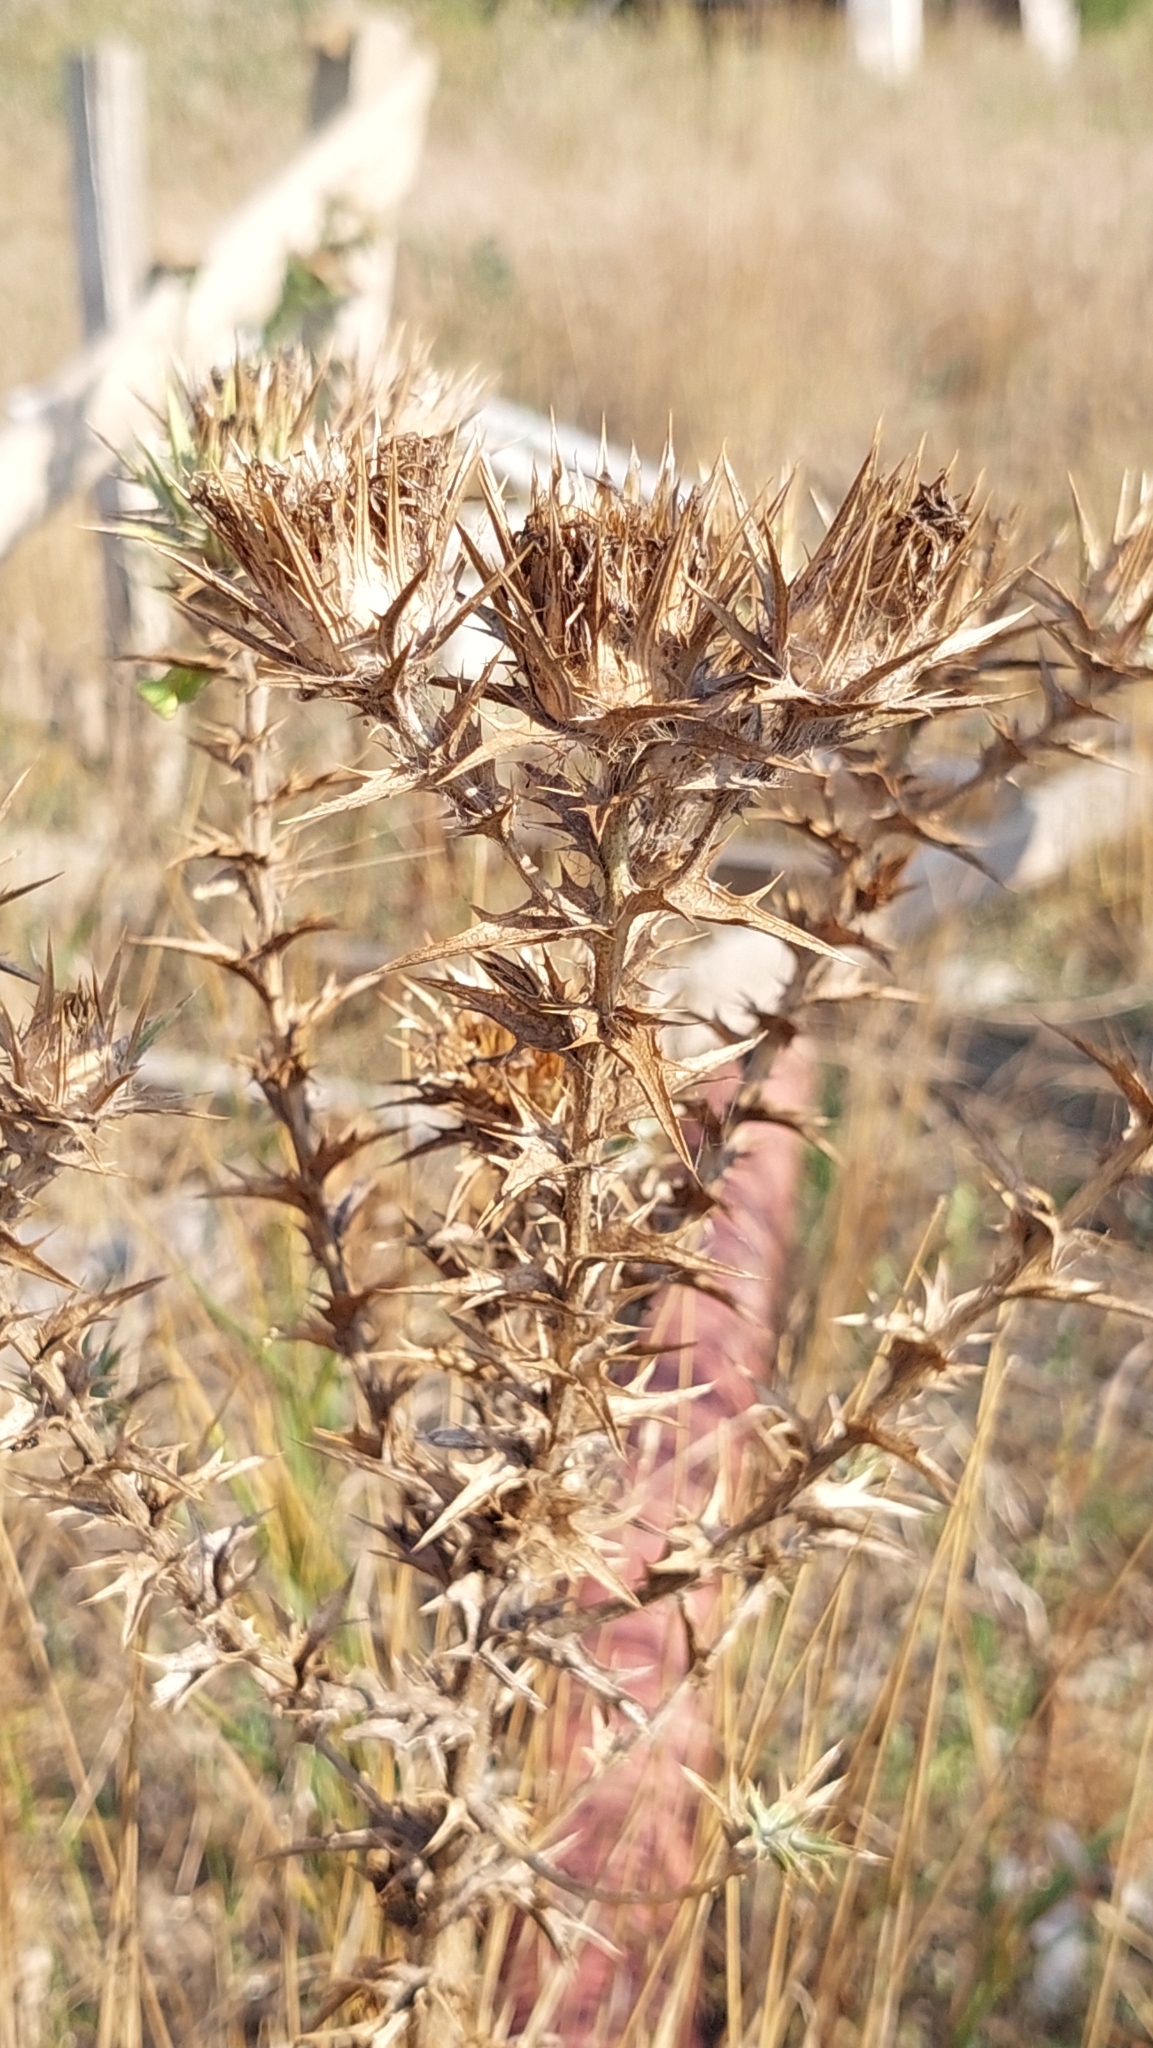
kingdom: Plantae
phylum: Tracheophyta
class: Magnoliopsida
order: Asterales
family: Asteraceae
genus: Carthamus
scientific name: Carthamus lanatus
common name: Downy safflower
